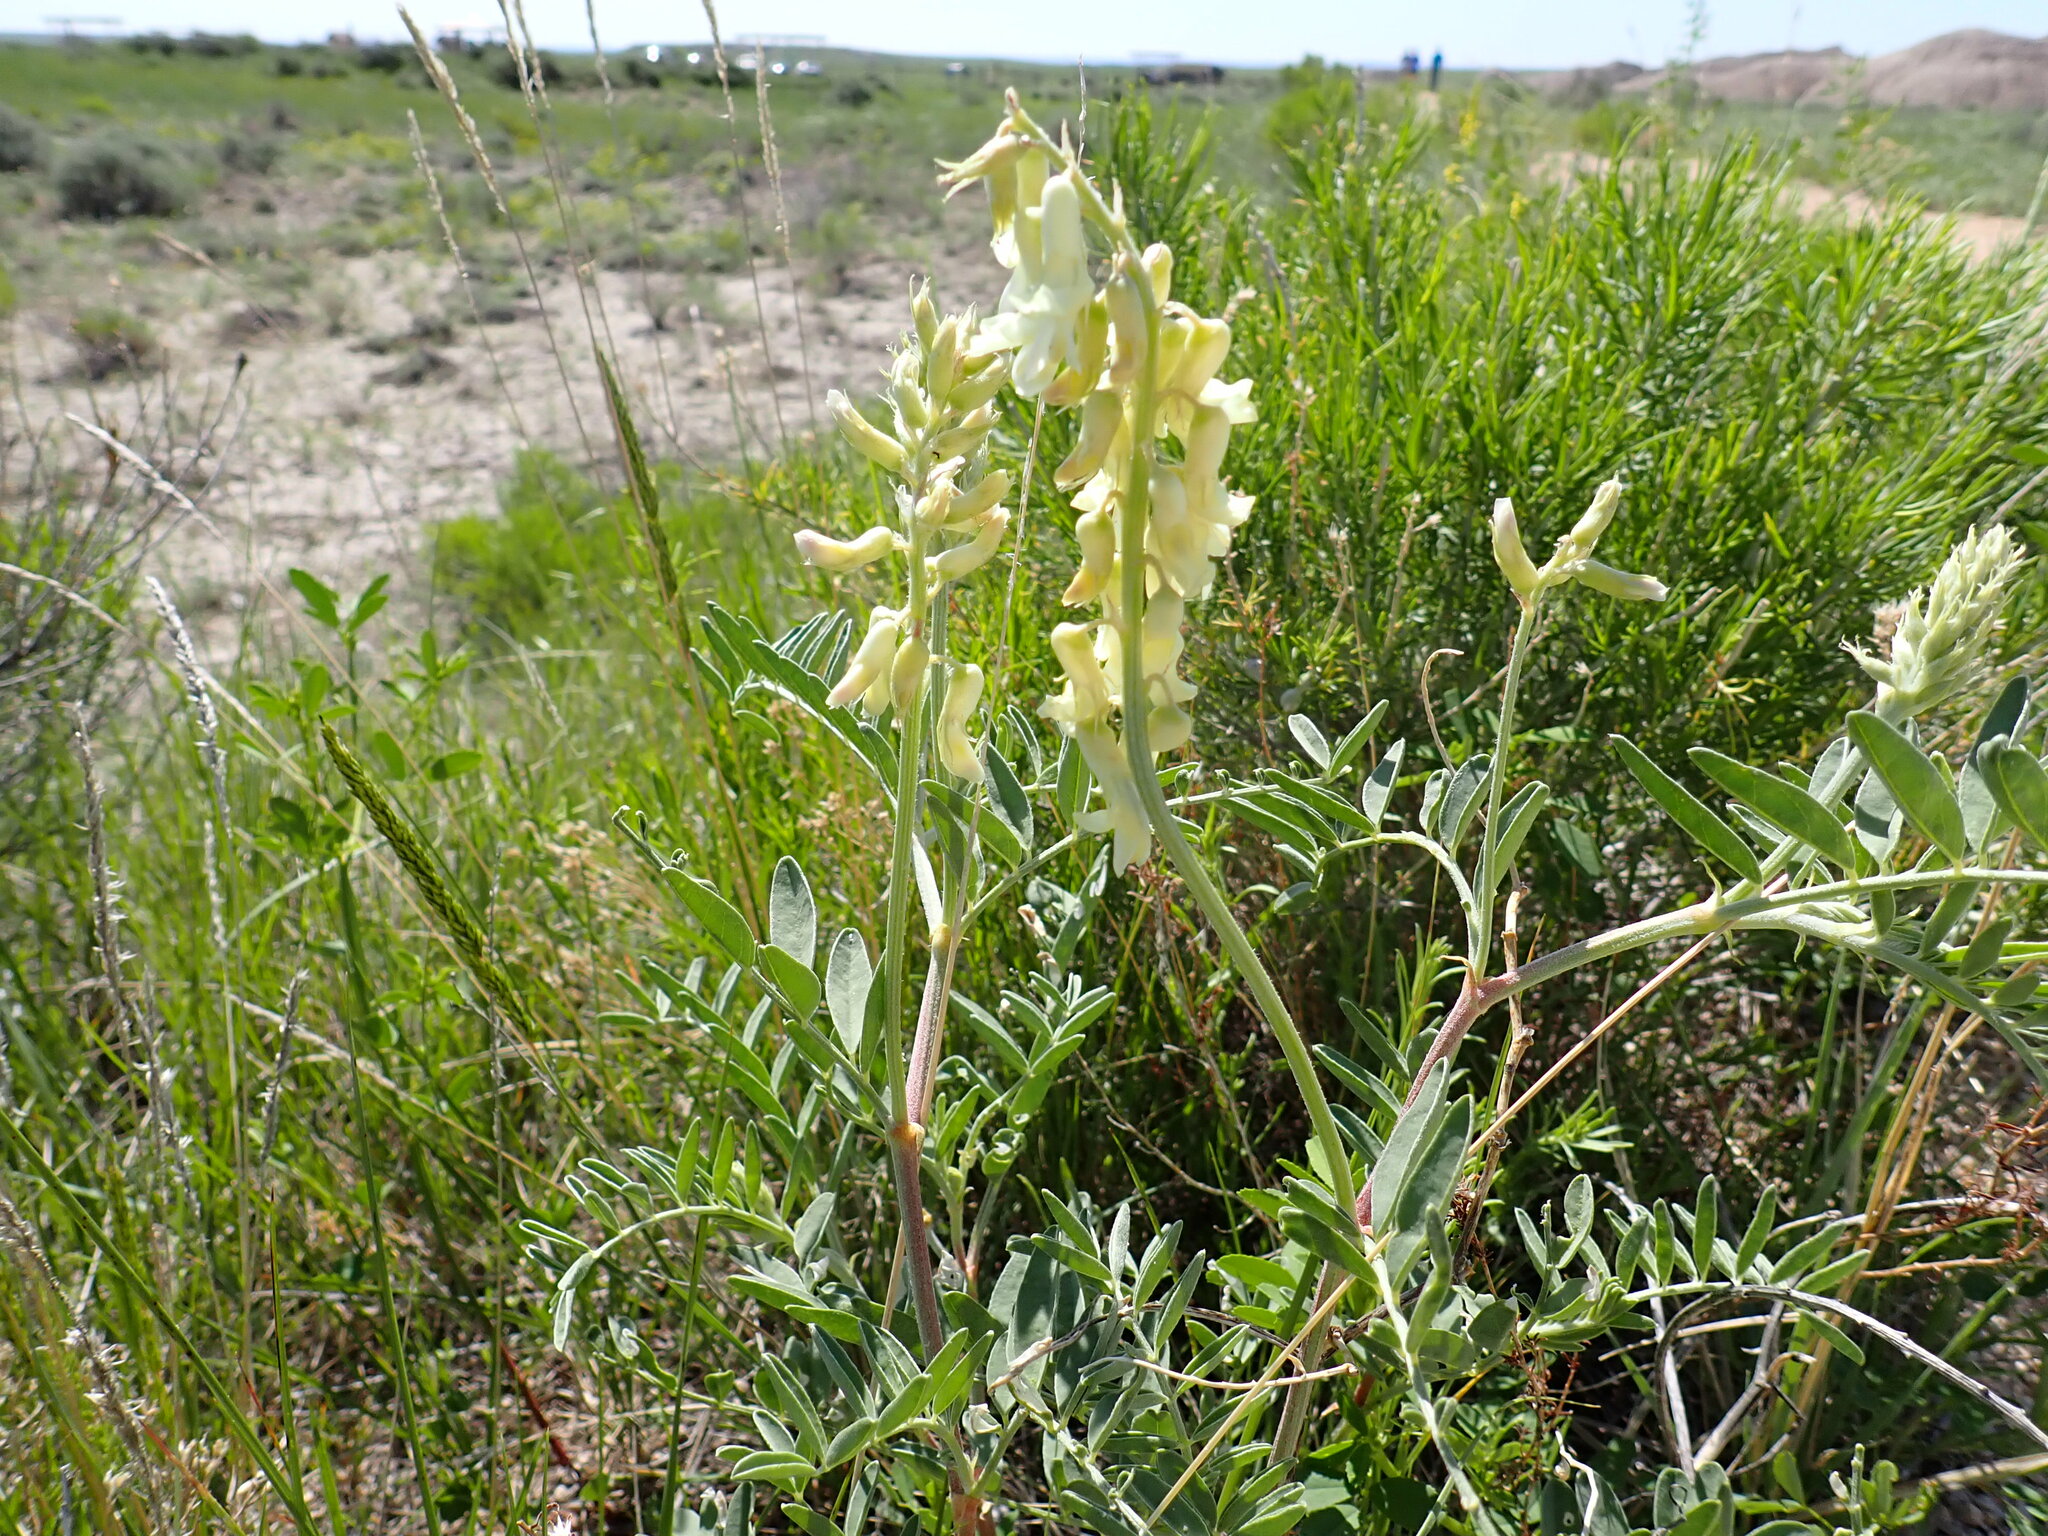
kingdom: Plantae
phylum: Tracheophyta
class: Magnoliopsida
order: Fabales
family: Fabaceae
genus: Astragalus
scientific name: Astragalus racemosus
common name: Alkali milk-vetch
